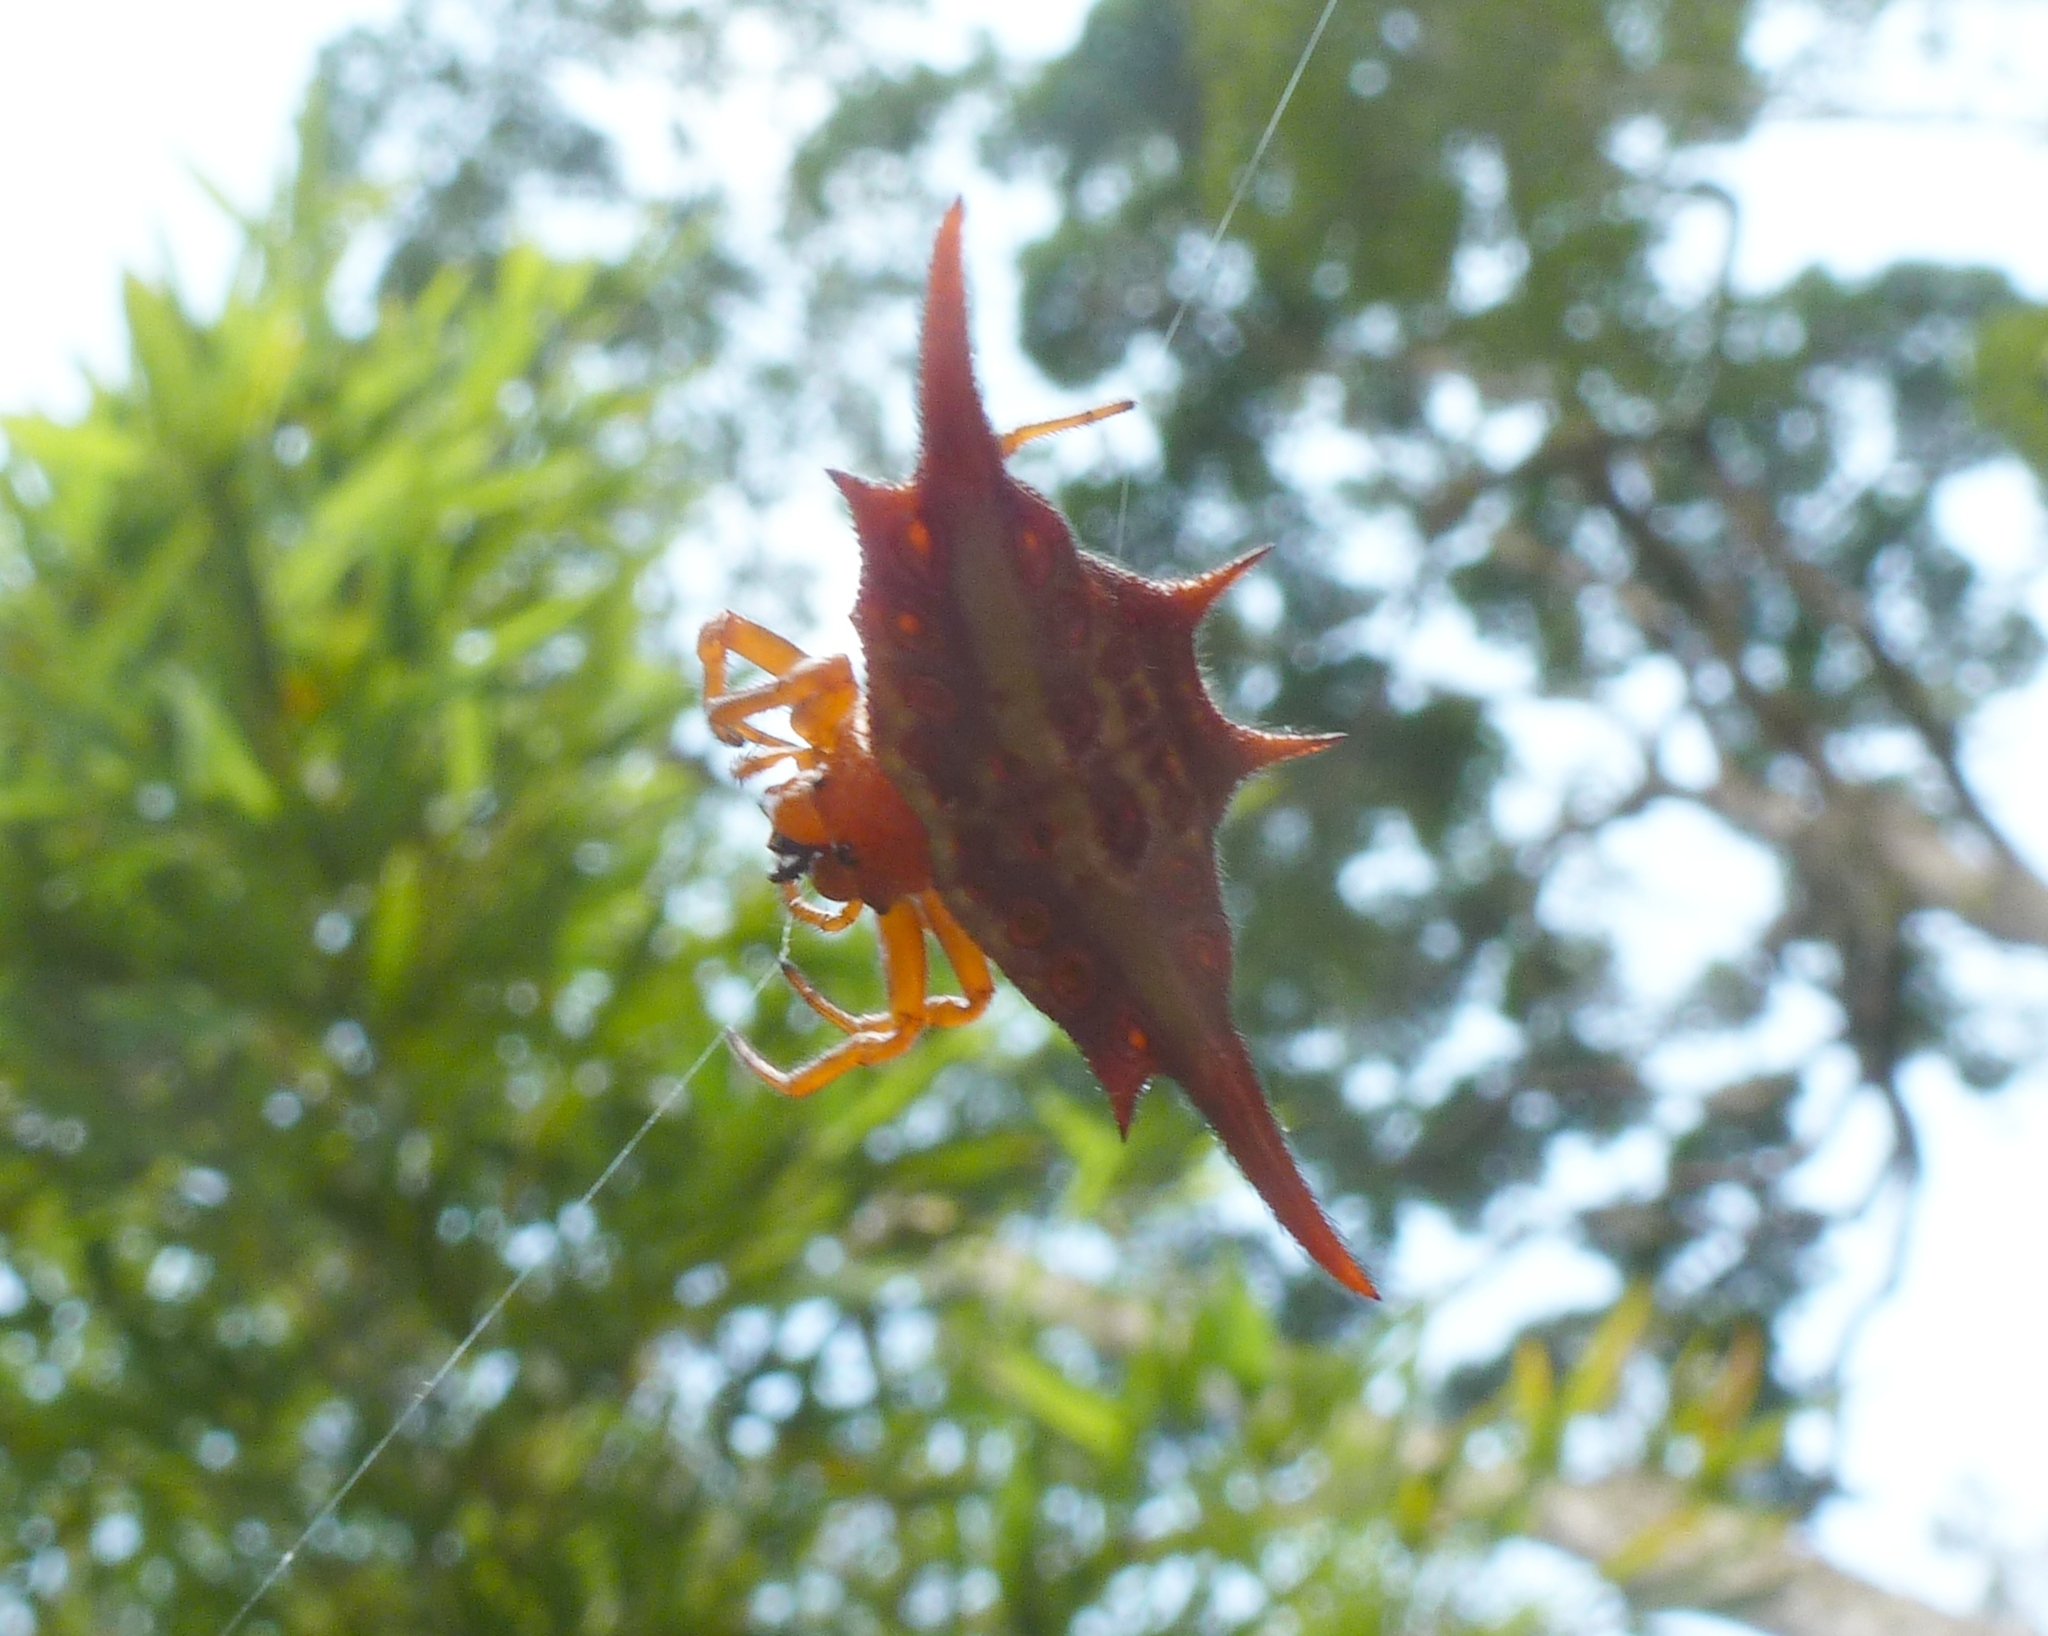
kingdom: Animalia
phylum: Arthropoda
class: Arachnida
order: Araneae
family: Araneidae
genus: Gasteracantha
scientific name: Gasteracantha versicolor
